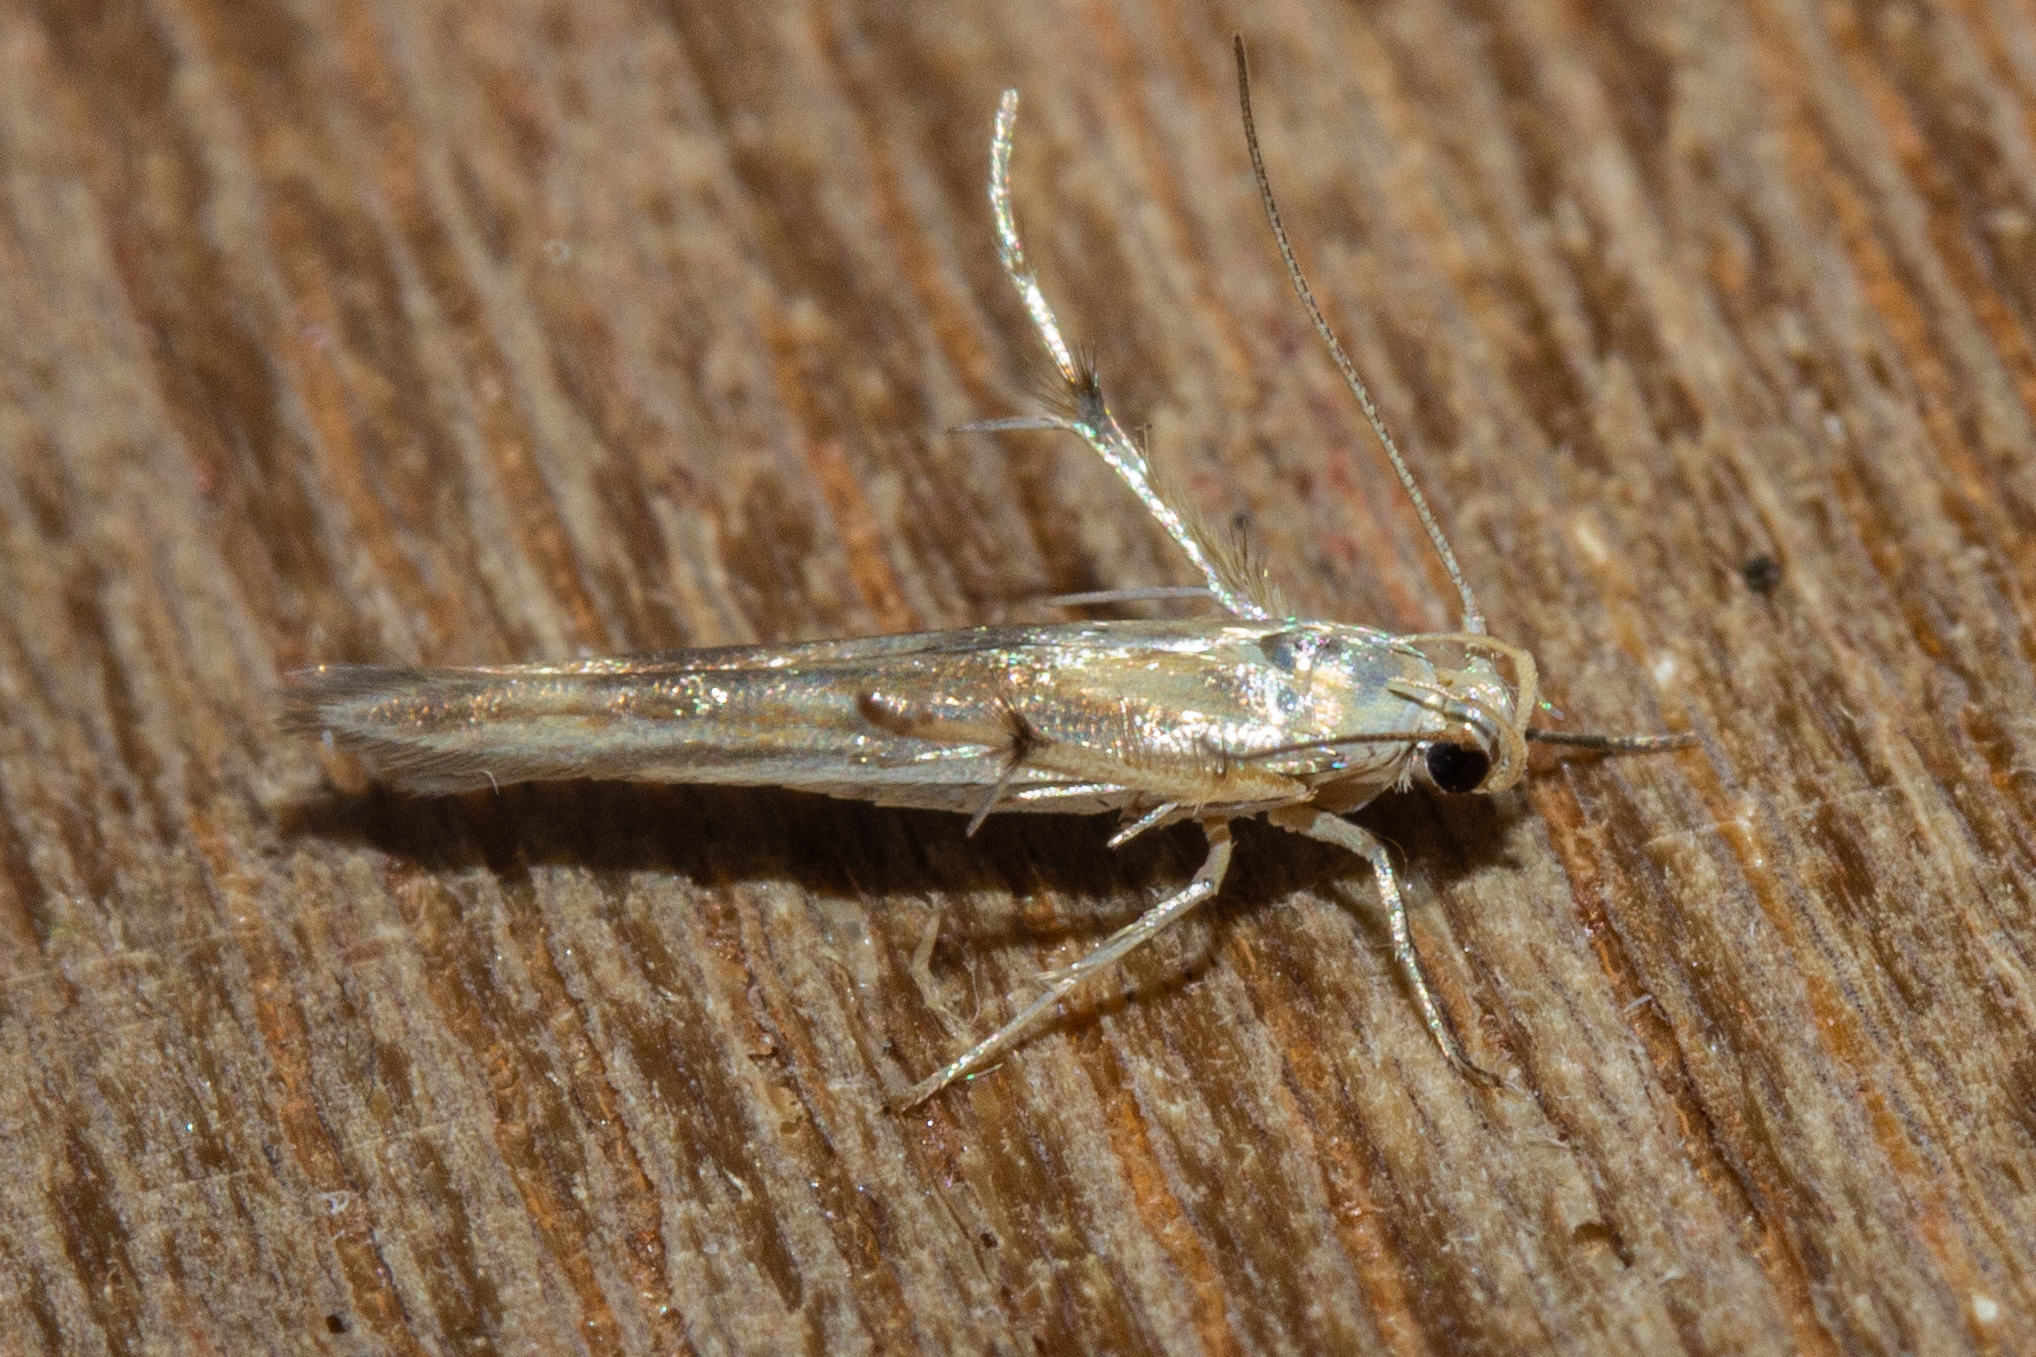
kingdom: Animalia
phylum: Arthropoda
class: Insecta
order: Lepidoptera
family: Stathmopodidae
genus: Stathmopoda
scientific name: Stathmopoda horticola
